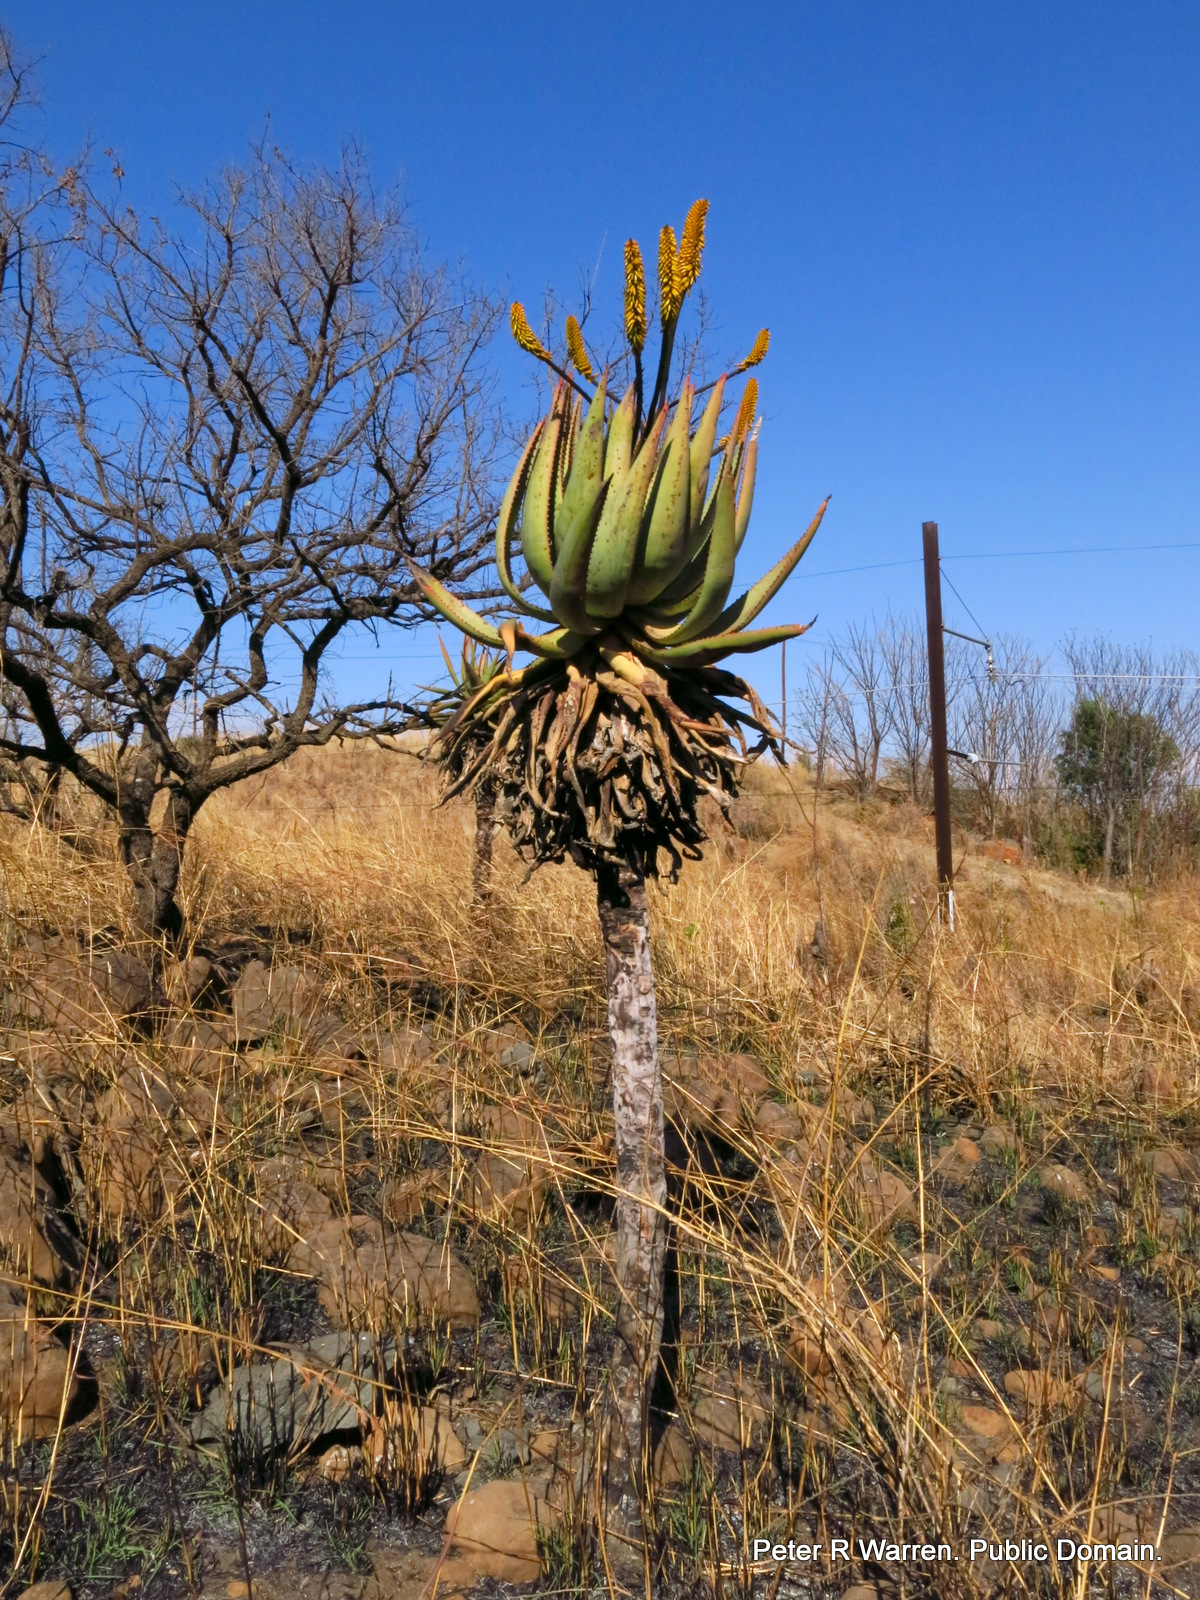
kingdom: Plantae
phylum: Tracheophyta
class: Liliopsida
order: Asparagales
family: Asphodelaceae
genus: Aloe
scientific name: Aloe marlothii
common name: Flat-flowered aloe
